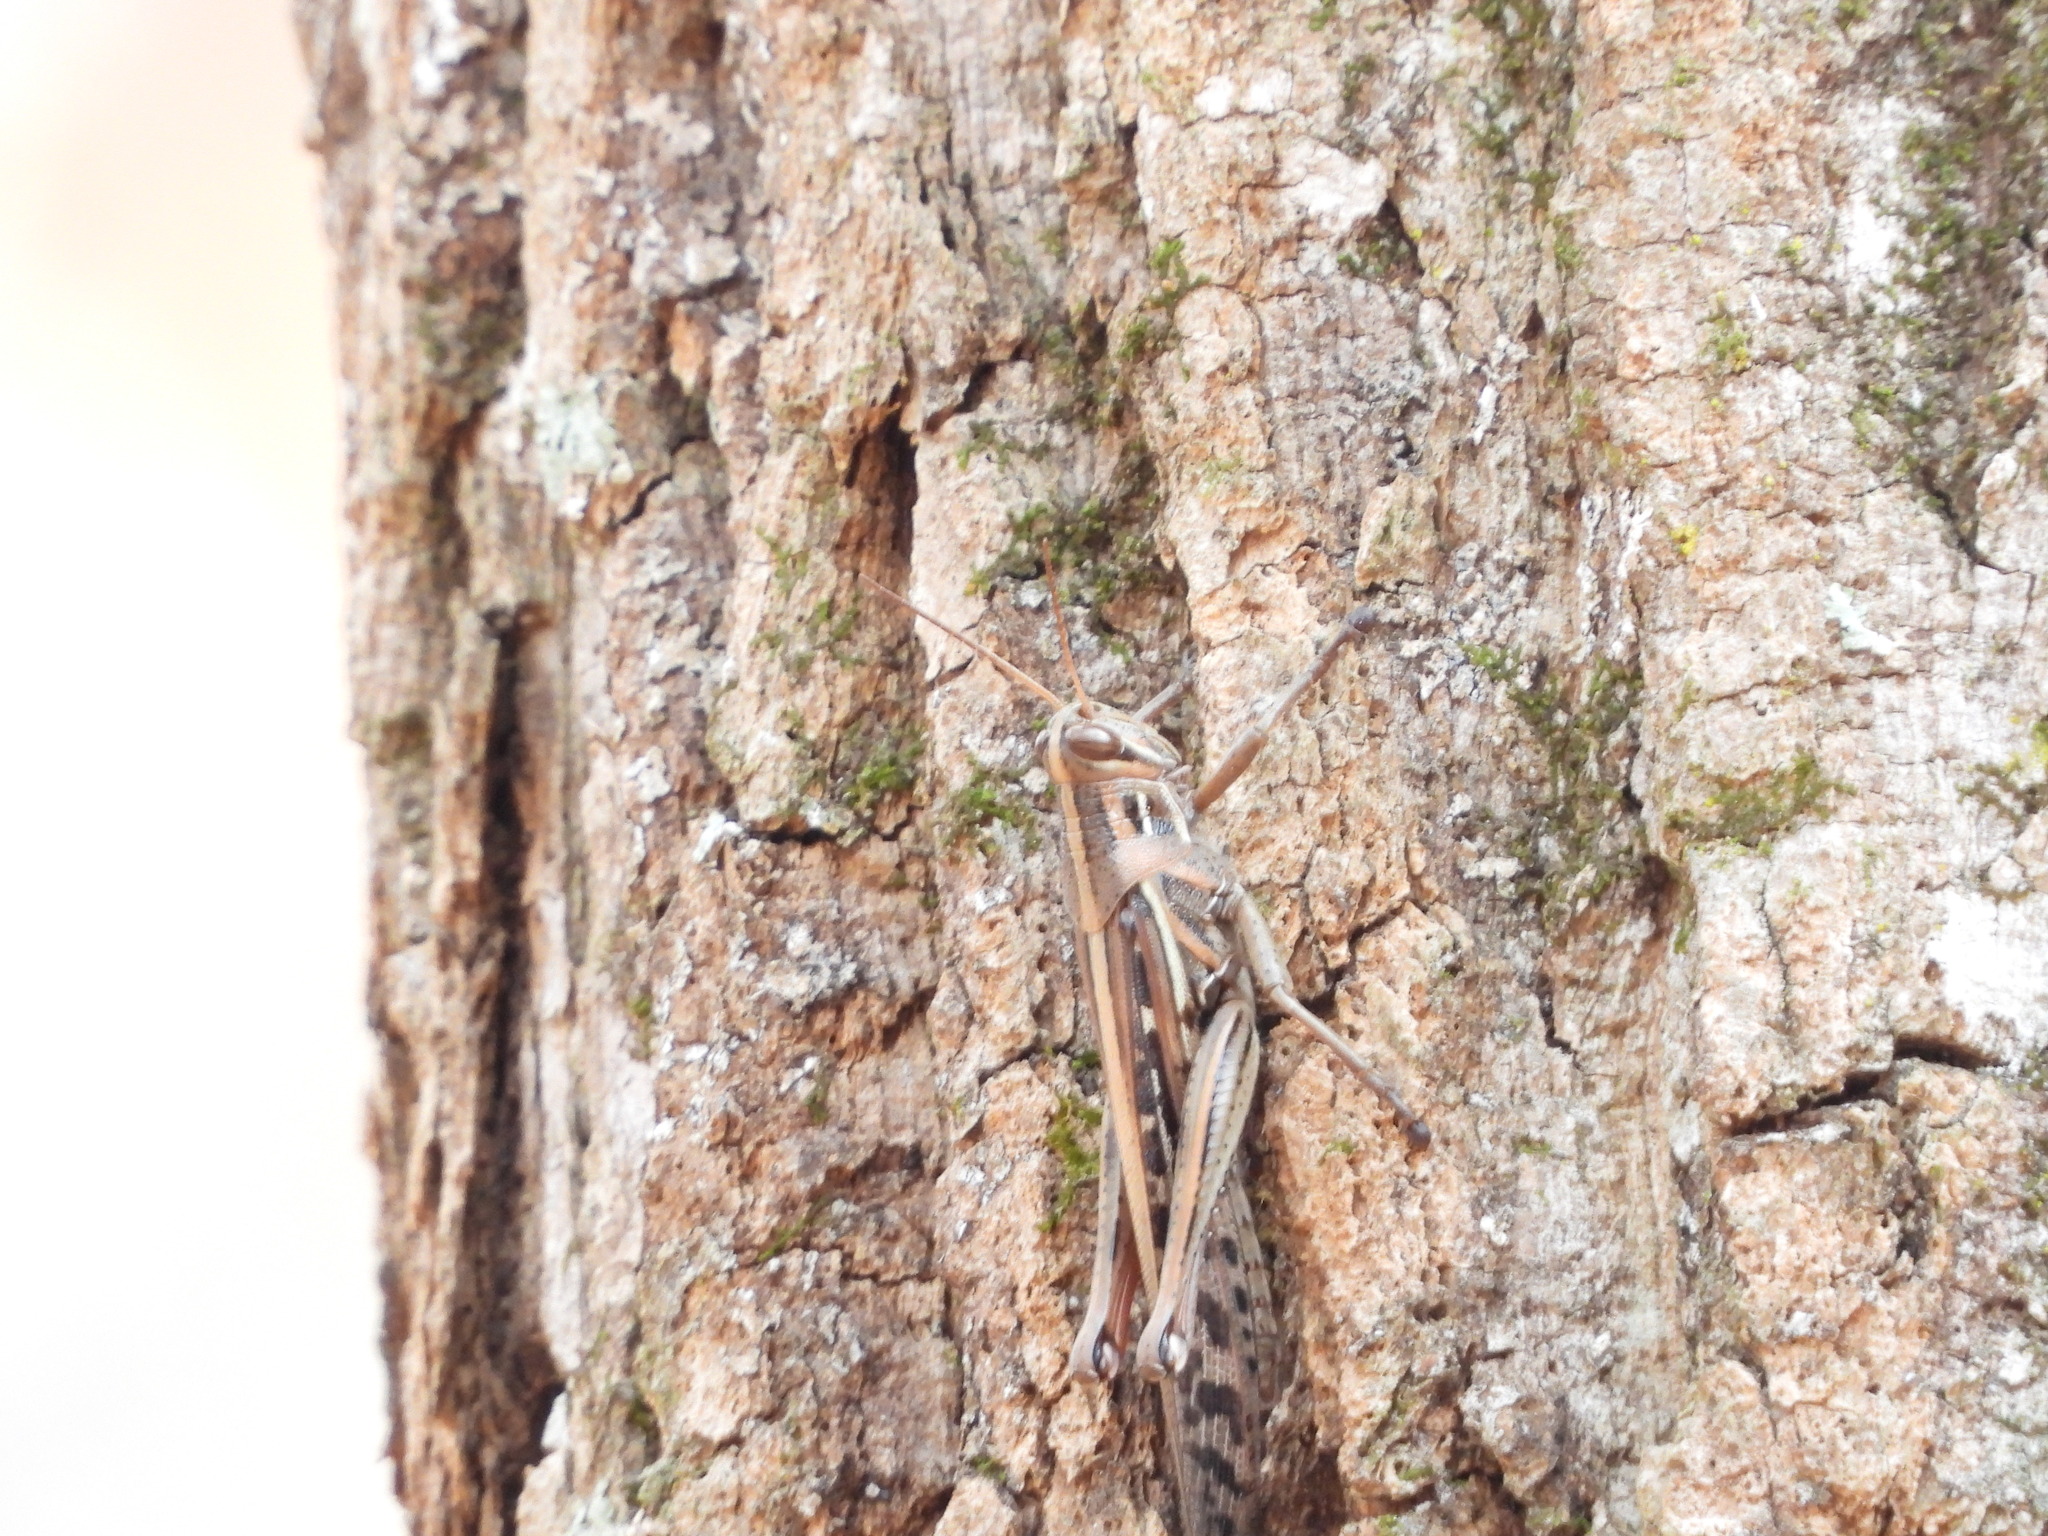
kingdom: Animalia
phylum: Arthropoda
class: Insecta
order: Orthoptera
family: Acrididae
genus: Schistocerca
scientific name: Schistocerca americana
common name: American bird locust
